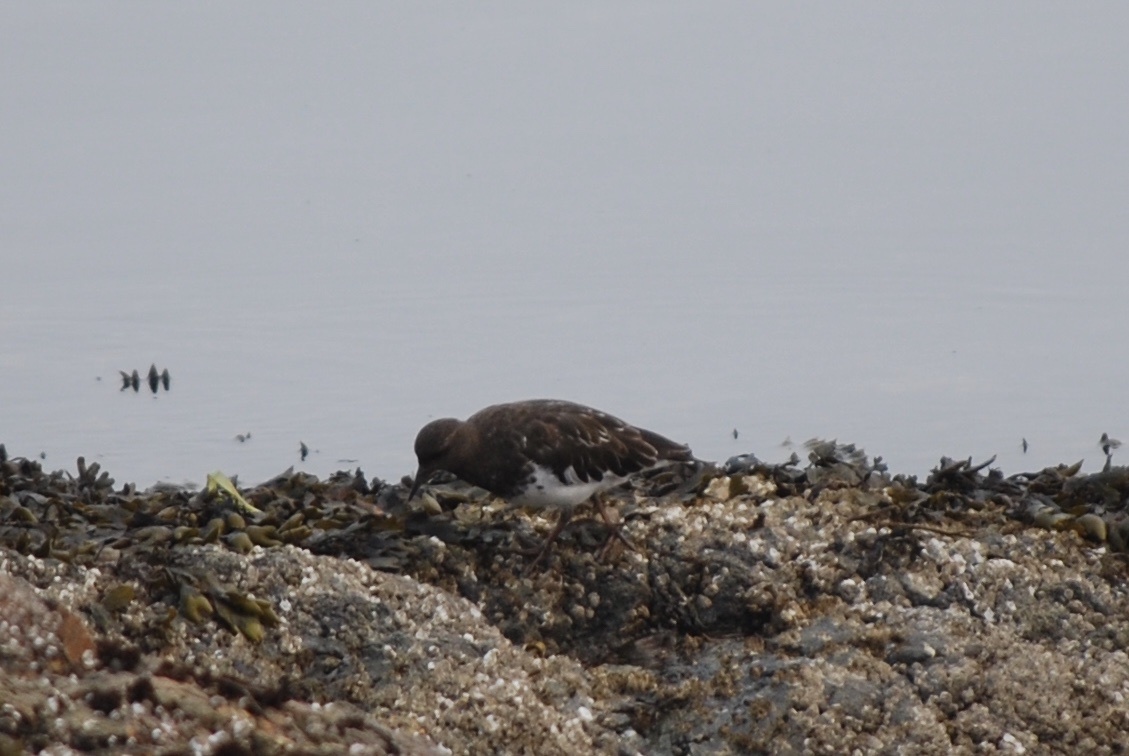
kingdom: Animalia
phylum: Chordata
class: Aves
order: Charadriiformes
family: Scolopacidae
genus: Arenaria
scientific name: Arenaria melanocephala
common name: Black turnstone
